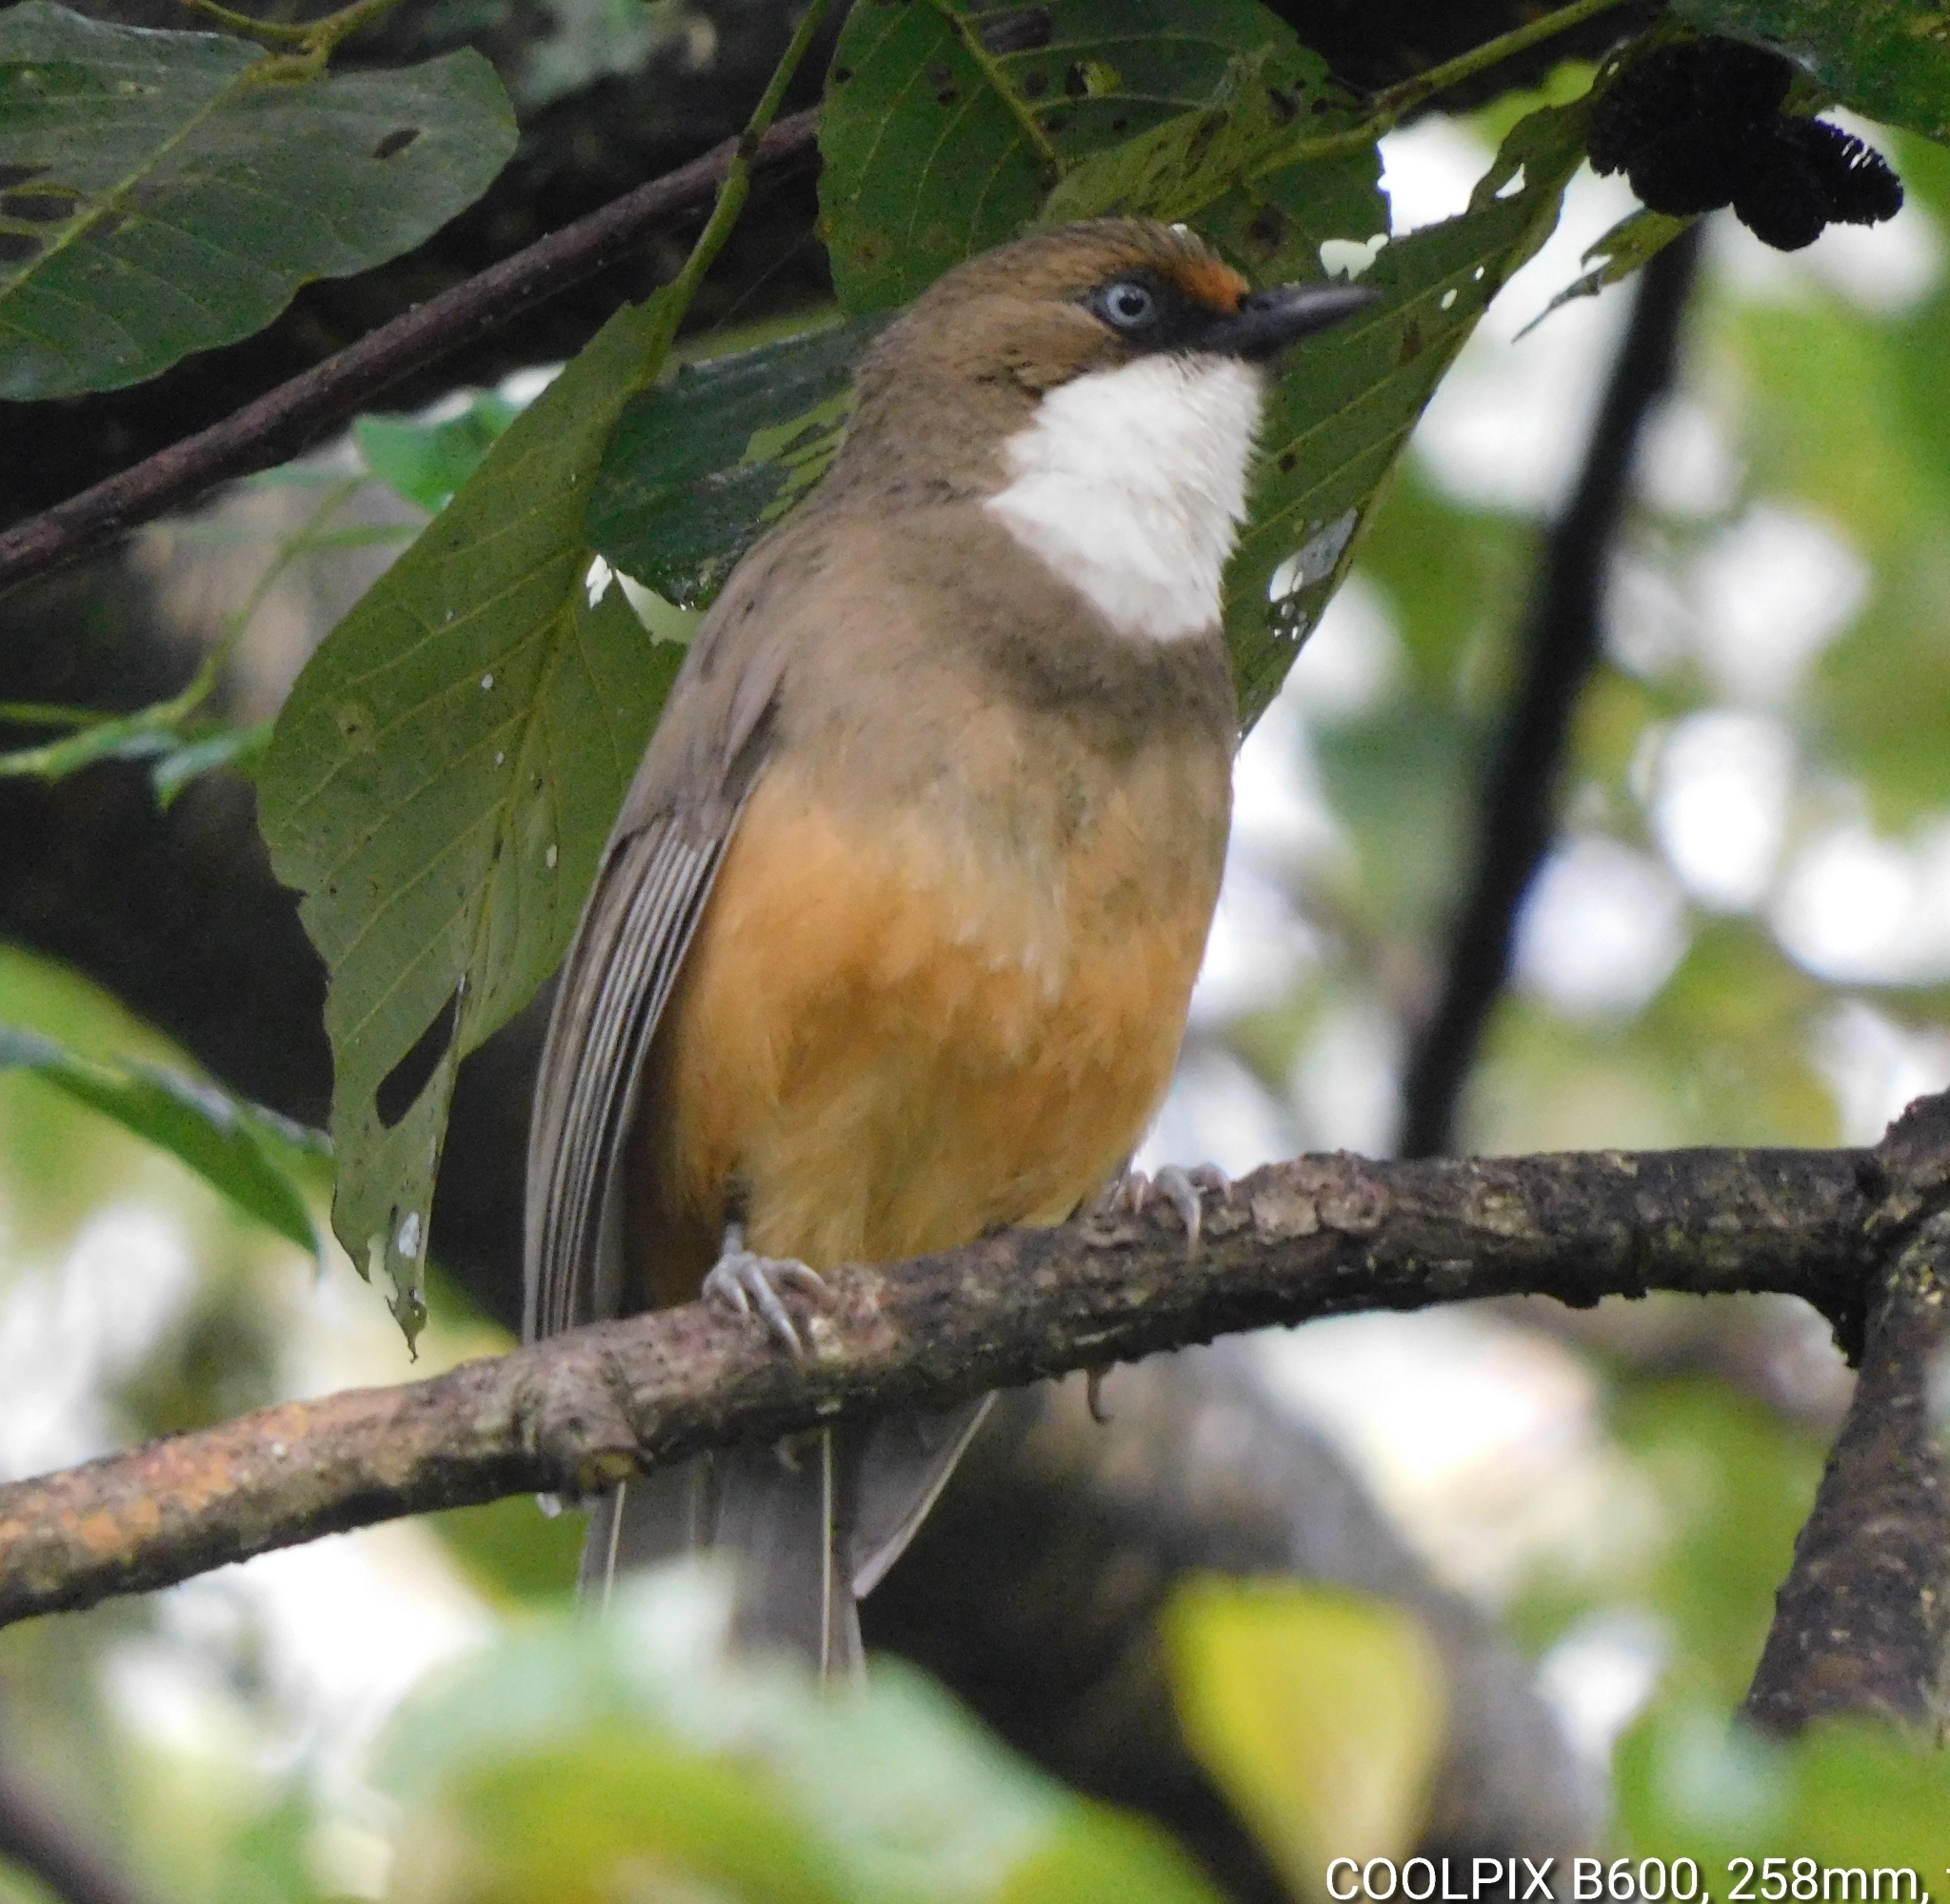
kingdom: Animalia
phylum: Chordata
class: Aves
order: Passeriformes
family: Leiothrichidae
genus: Garrulax
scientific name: Garrulax albogularis
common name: White-throated laughingthrush
